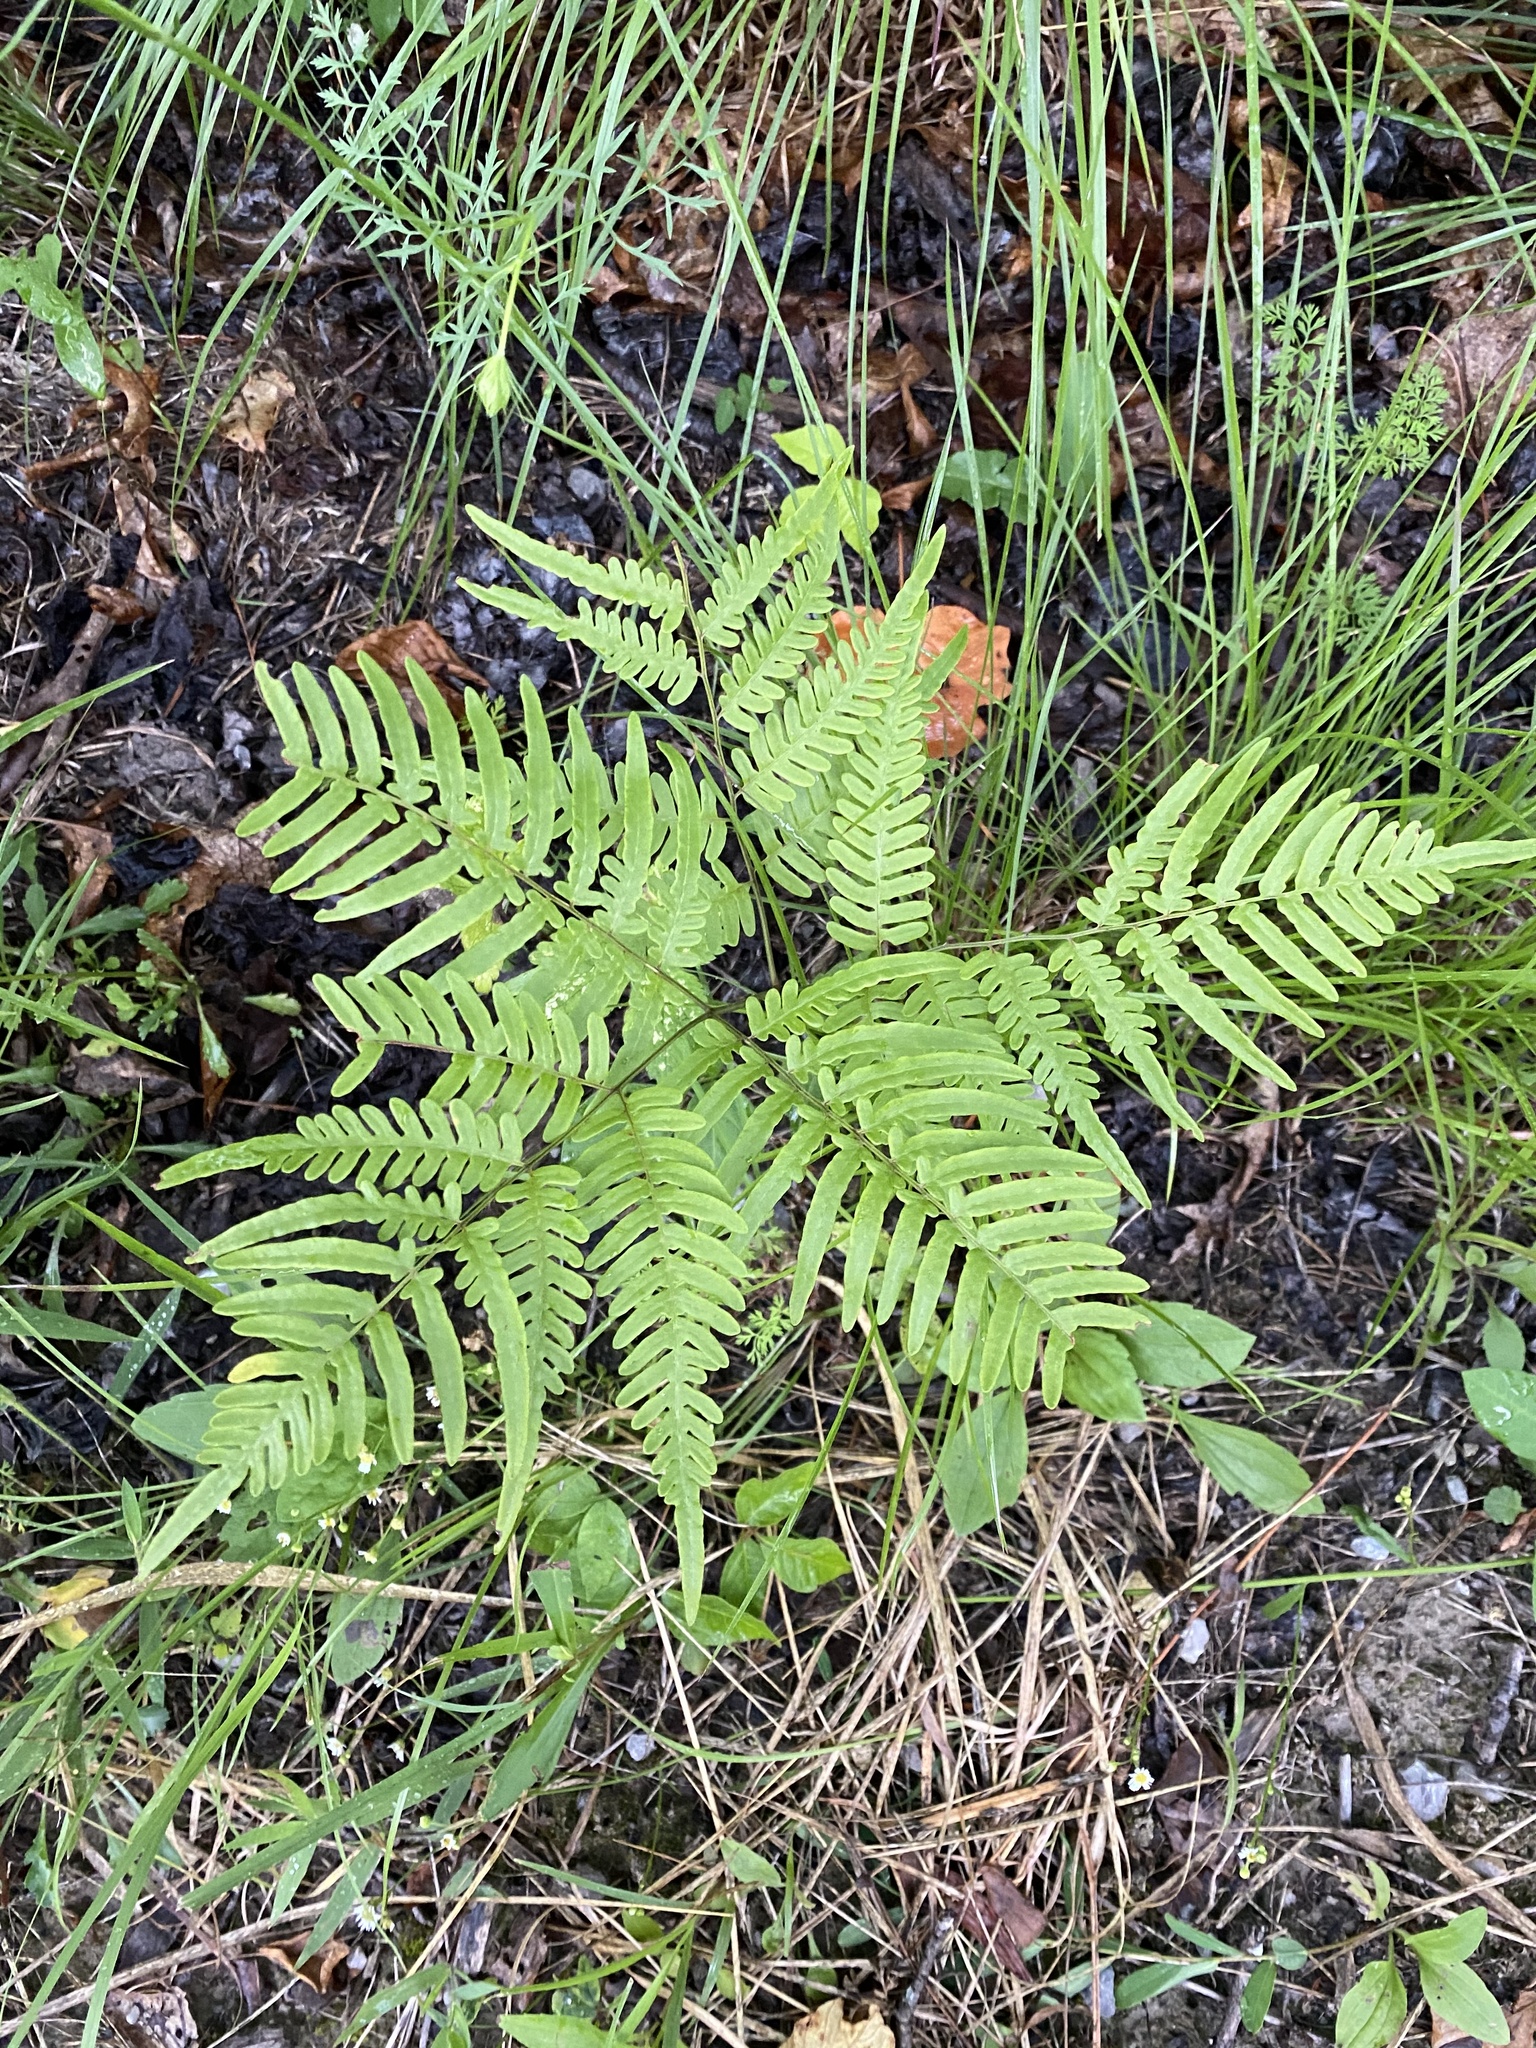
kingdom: Plantae
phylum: Tracheophyta
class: Polypodiopsida
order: Polypodiales
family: Dennstaedtiaceae
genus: Pteridium
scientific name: Pteridium
